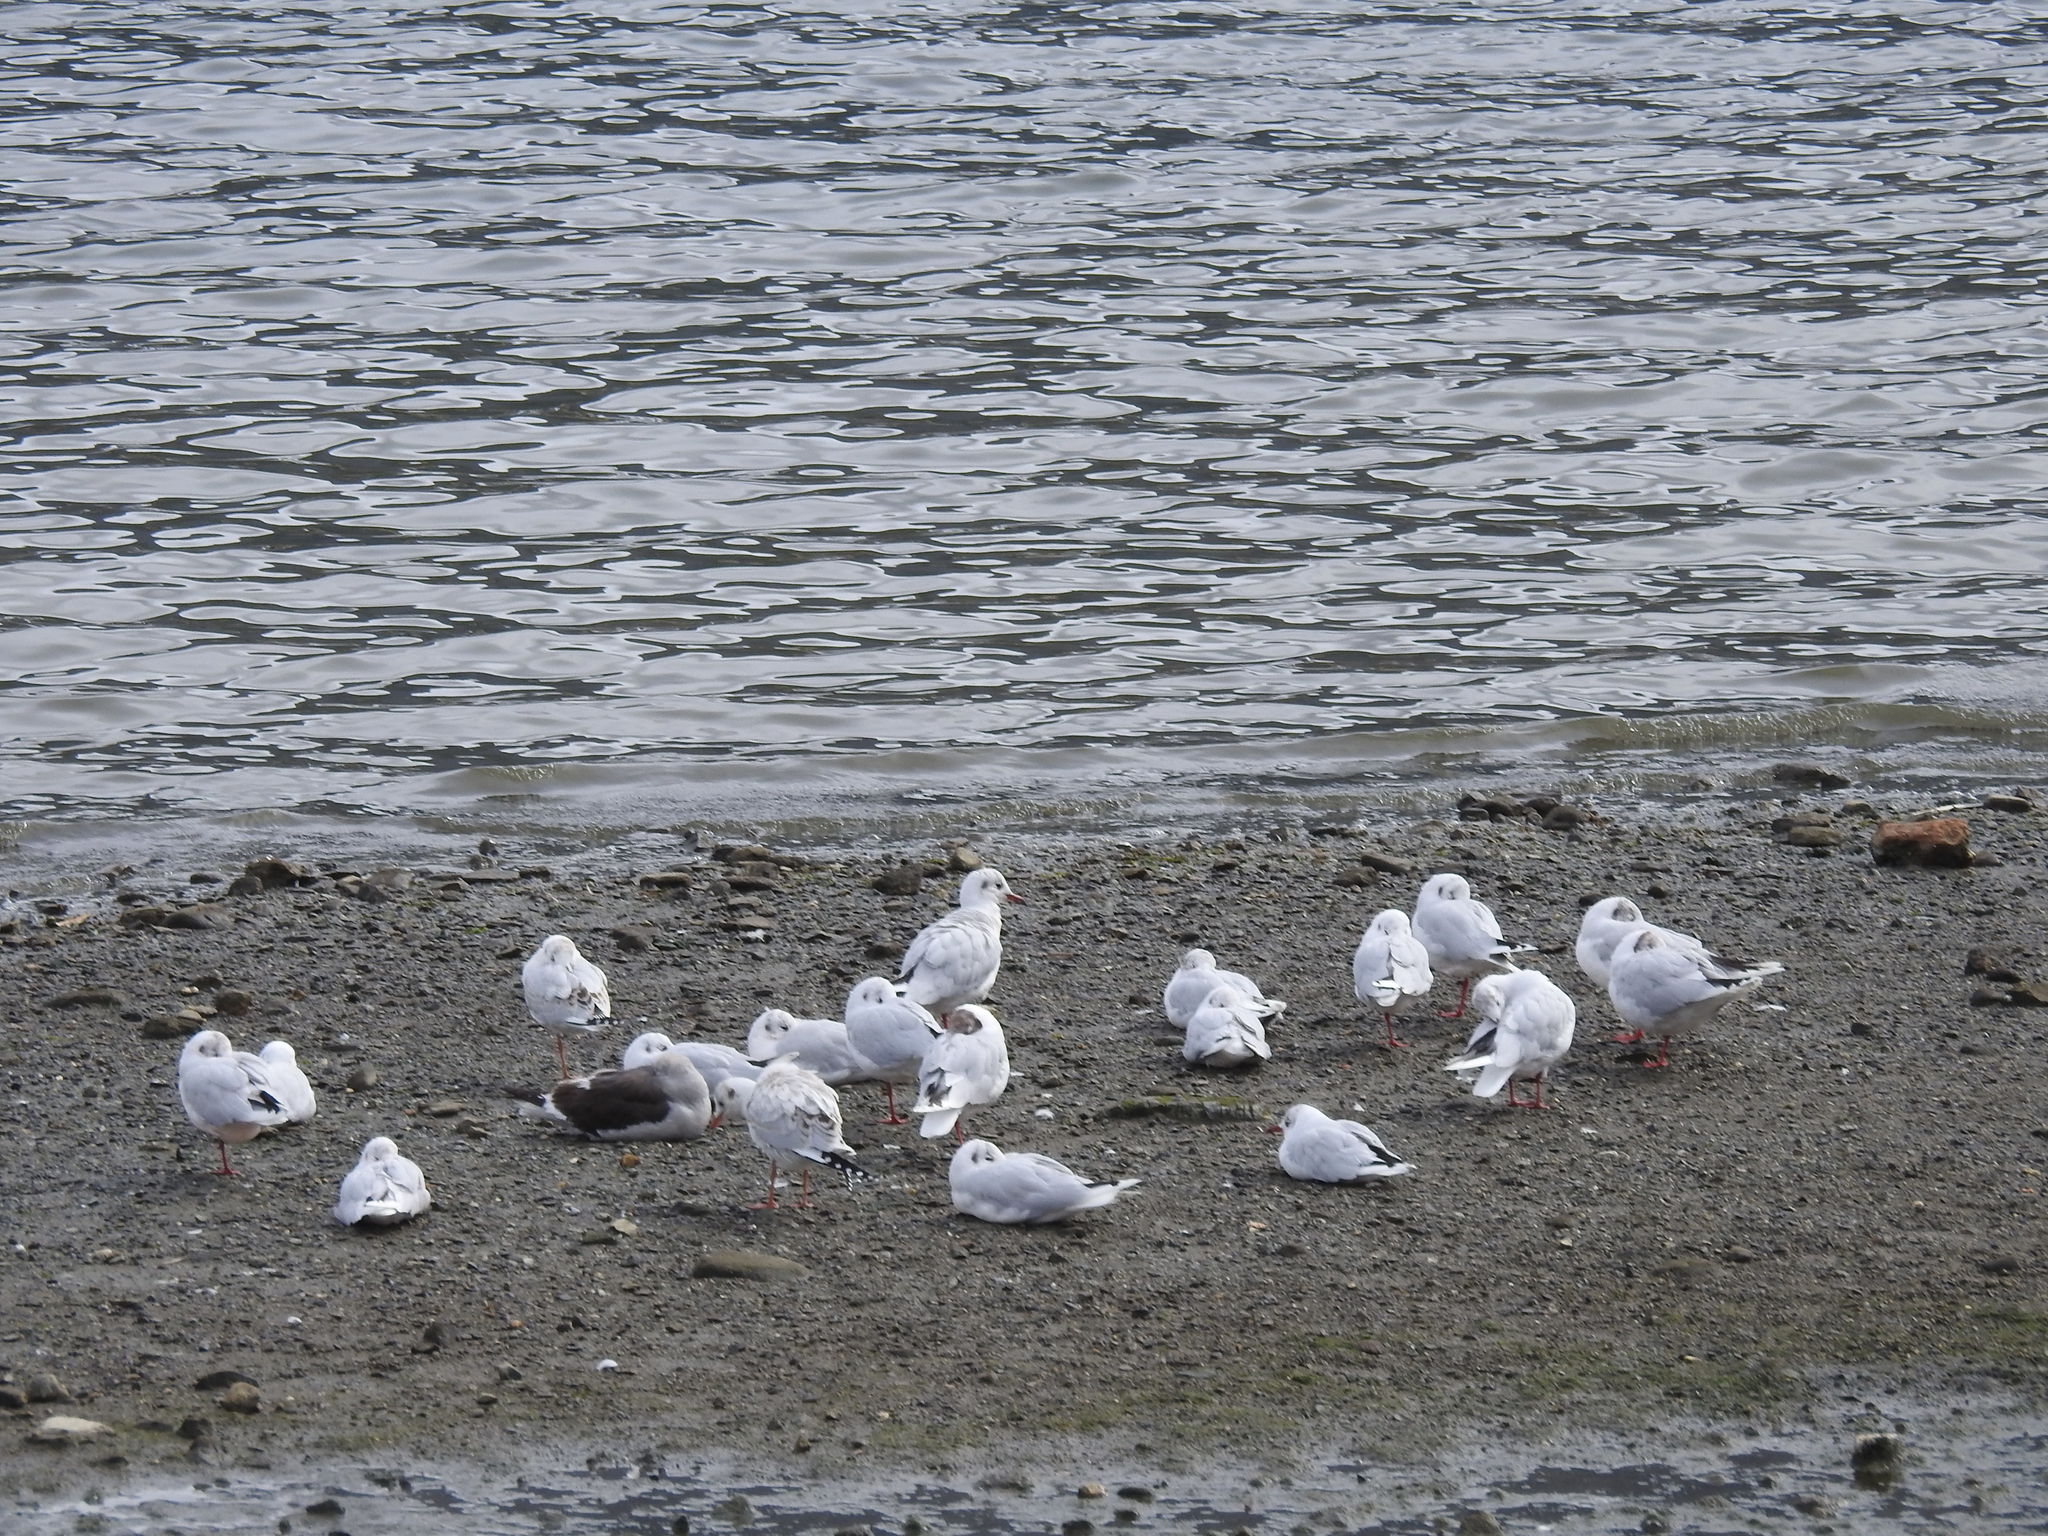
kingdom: Animalia
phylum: Chordata
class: Aves
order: Charadriiformes
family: Laridae
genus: Chroicocephalus
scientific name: Chroicocephalus maculipennis
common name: Brown-hooded gull
